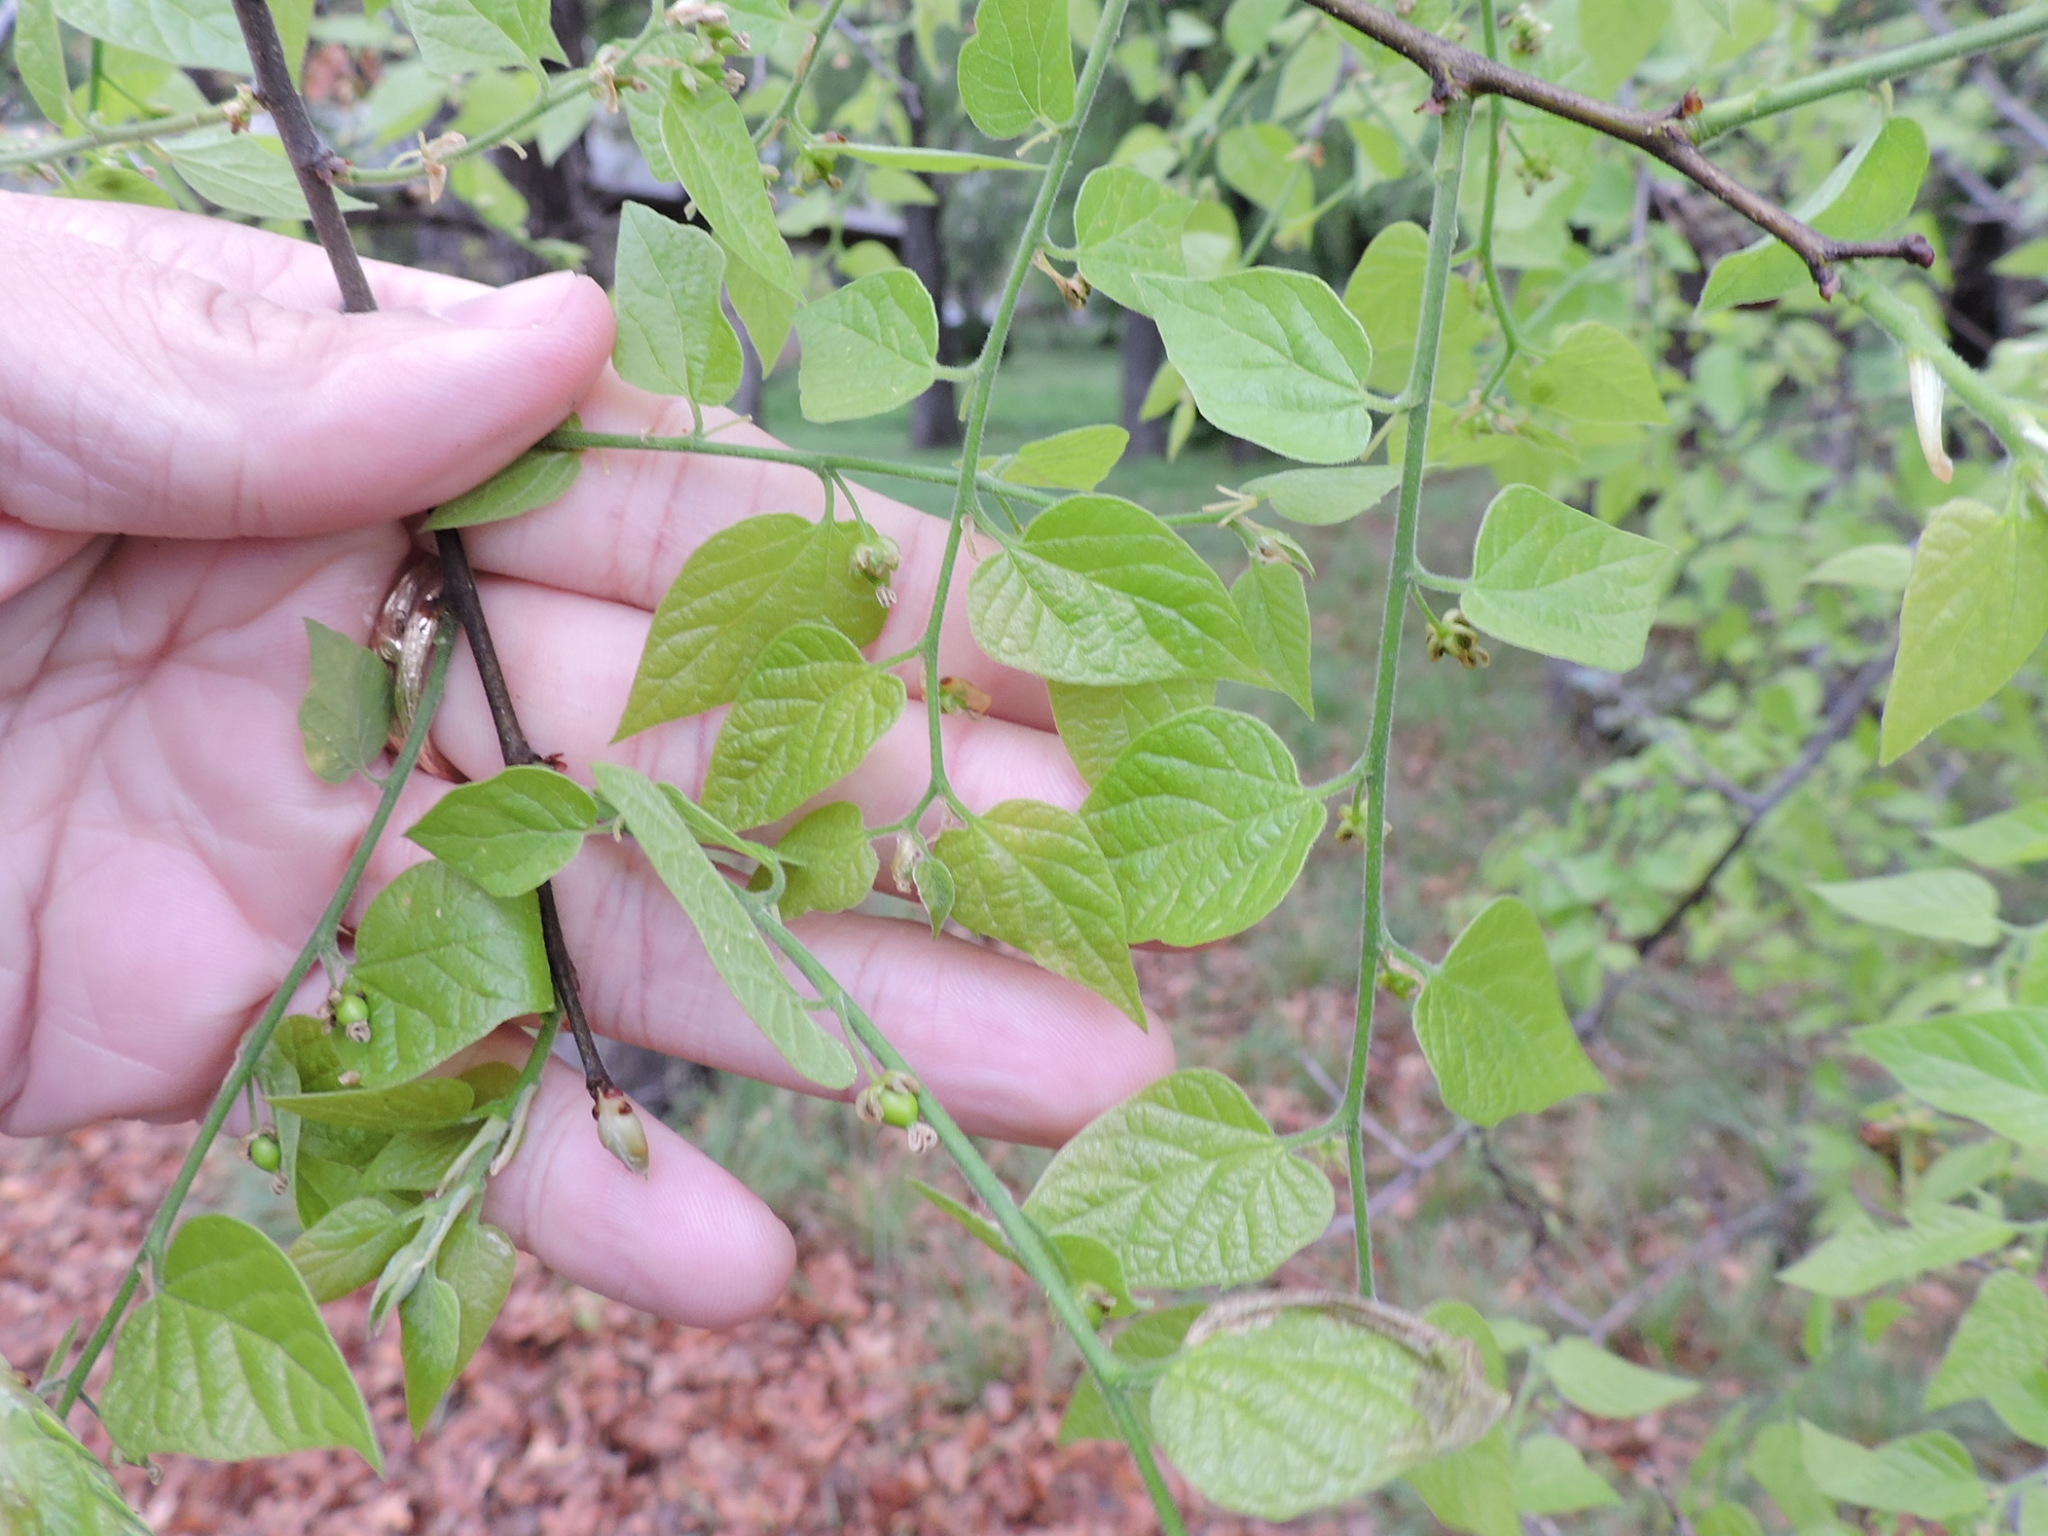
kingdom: Plantae
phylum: Tracheophyta
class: Magnoliopsida
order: Rosales
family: Cannabaceae
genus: Celtis
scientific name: Celtis laevigata
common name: Sugarberry
